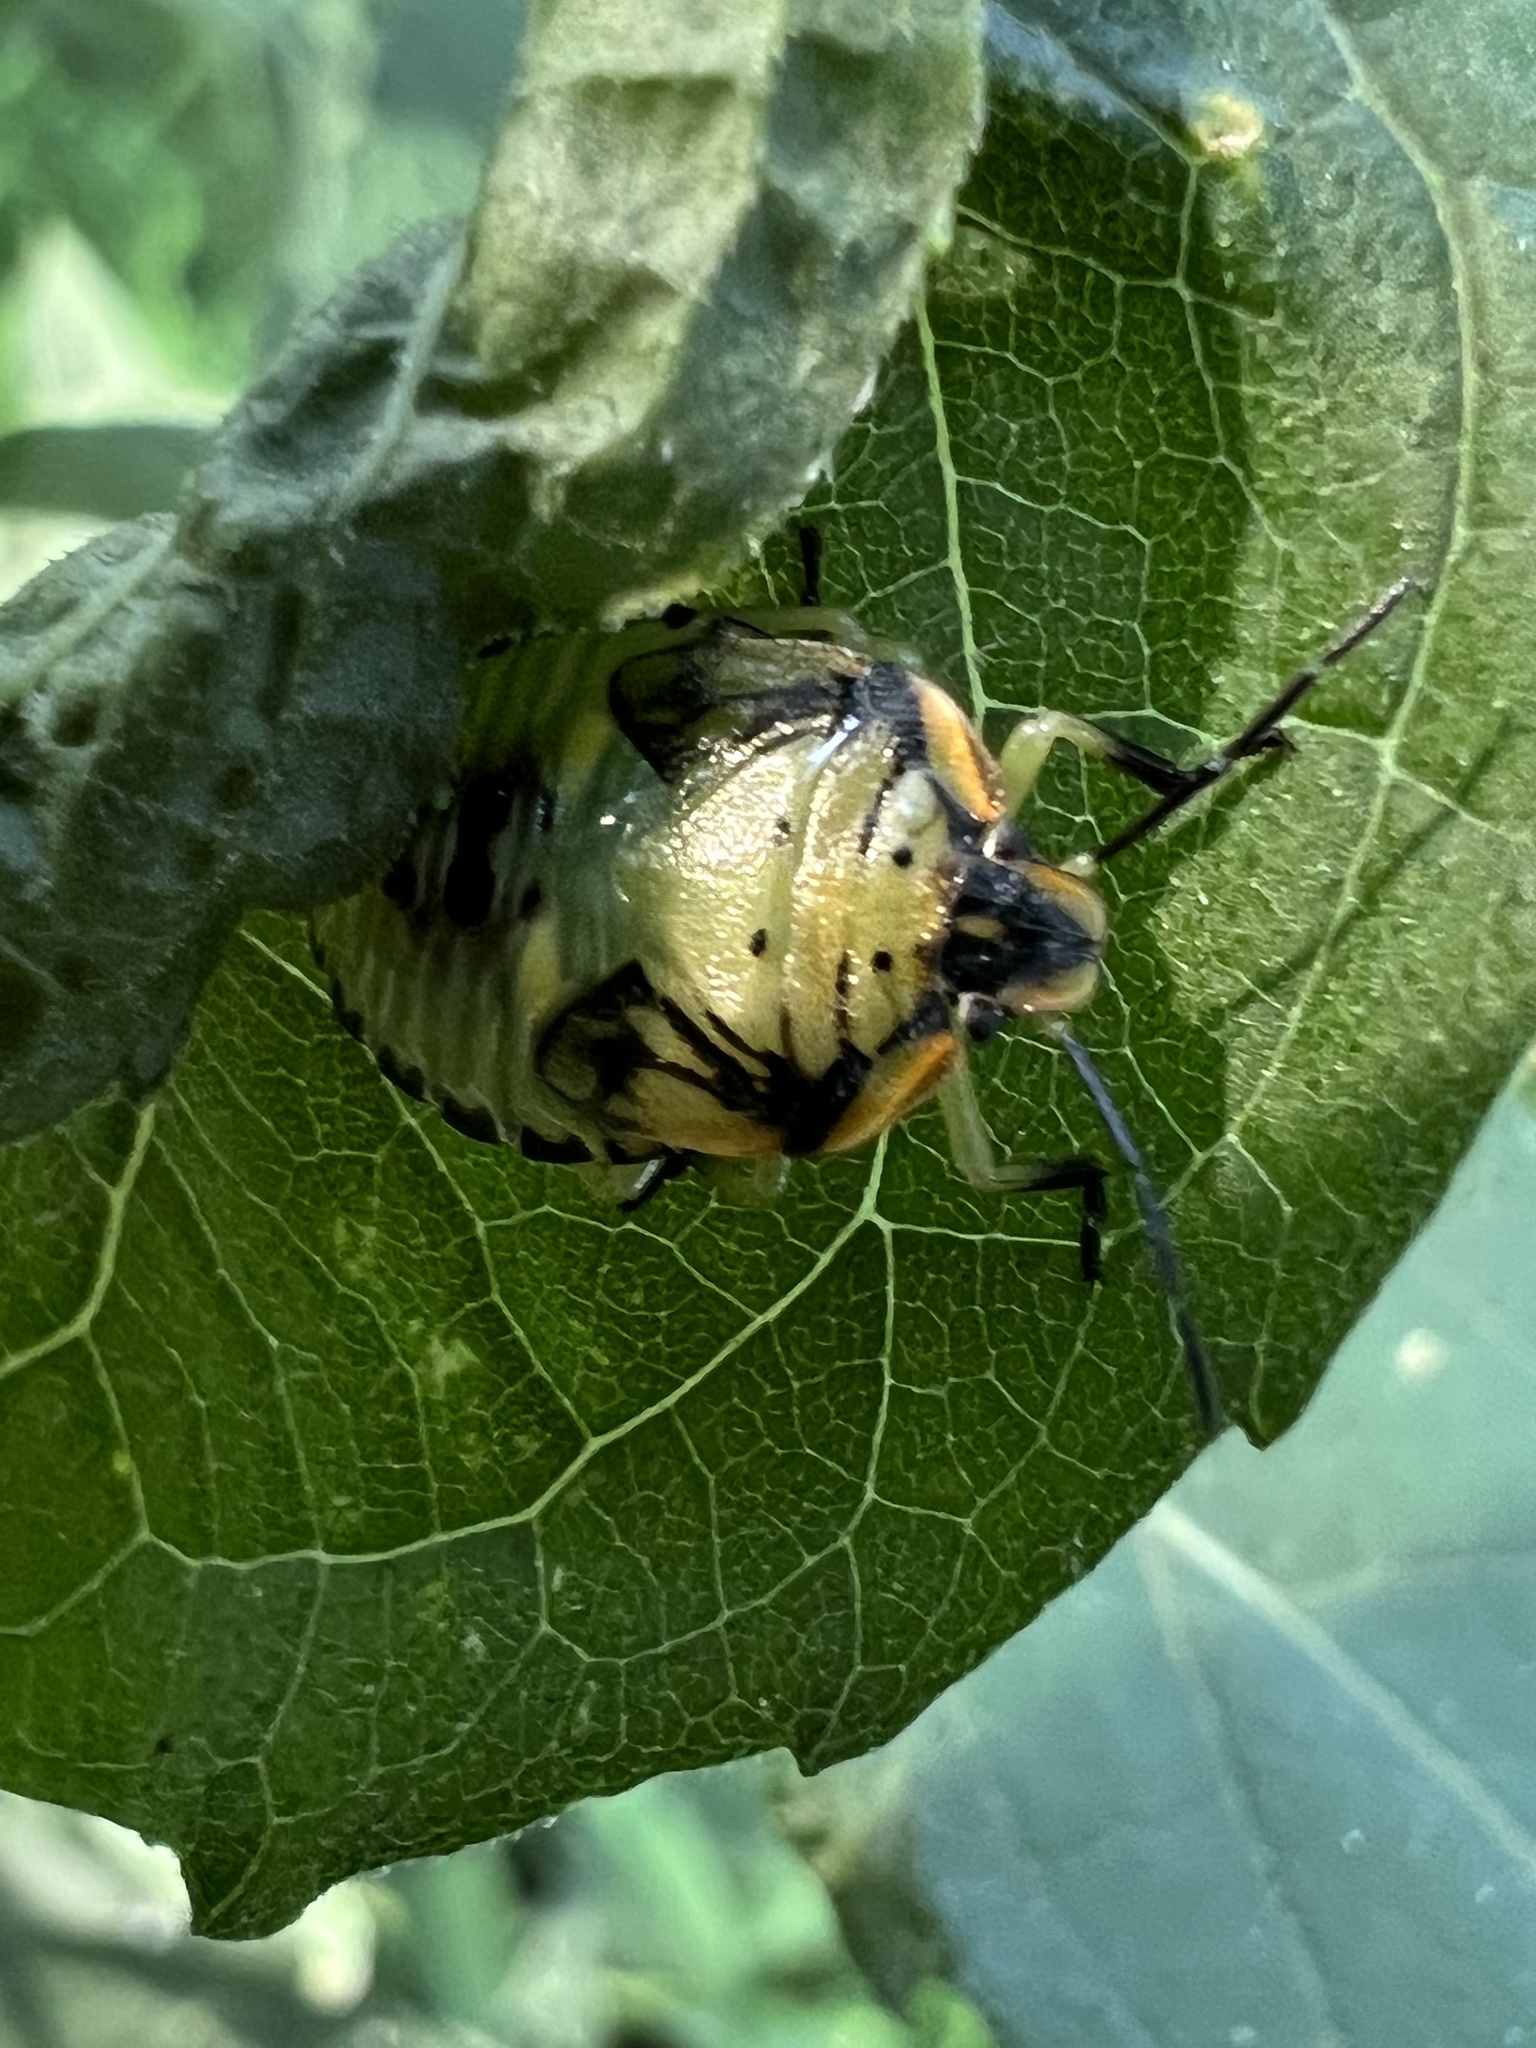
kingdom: Animalia
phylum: Arthropoda
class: Insecta
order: Hemiptera
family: Pentatomidae
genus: Chinavia
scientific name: Chinavia hilaris
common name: Green stink bug
